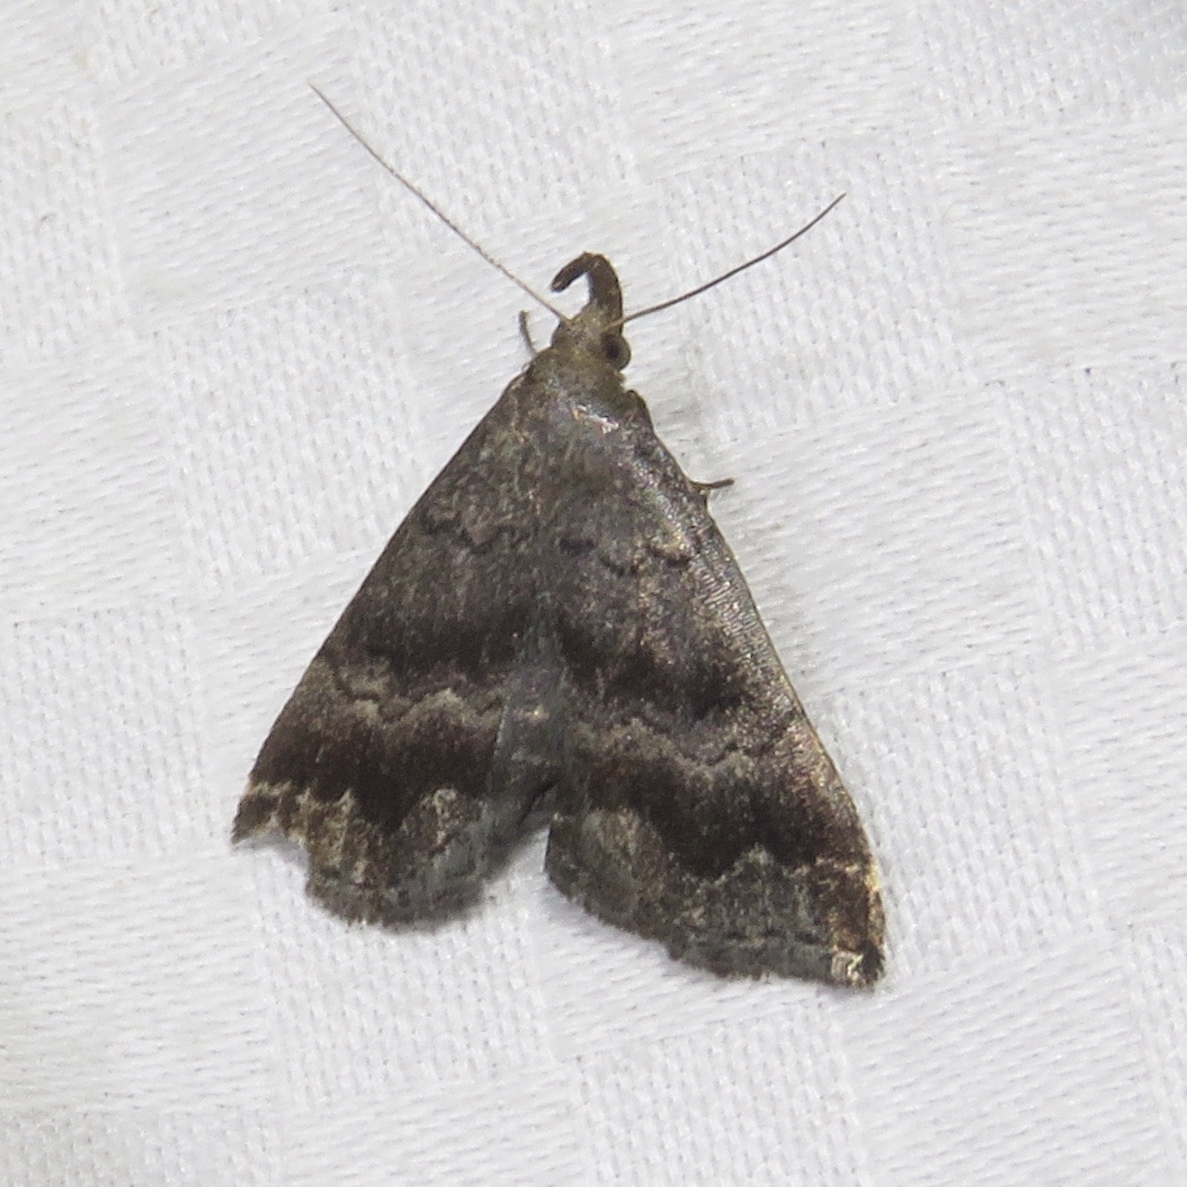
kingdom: Animalia
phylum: Arthropoda
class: Insecta
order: Lepidoptera
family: Erebidae
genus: Phalaenostola
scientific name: Phalaenostola larentioides
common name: Black-banded owlet
